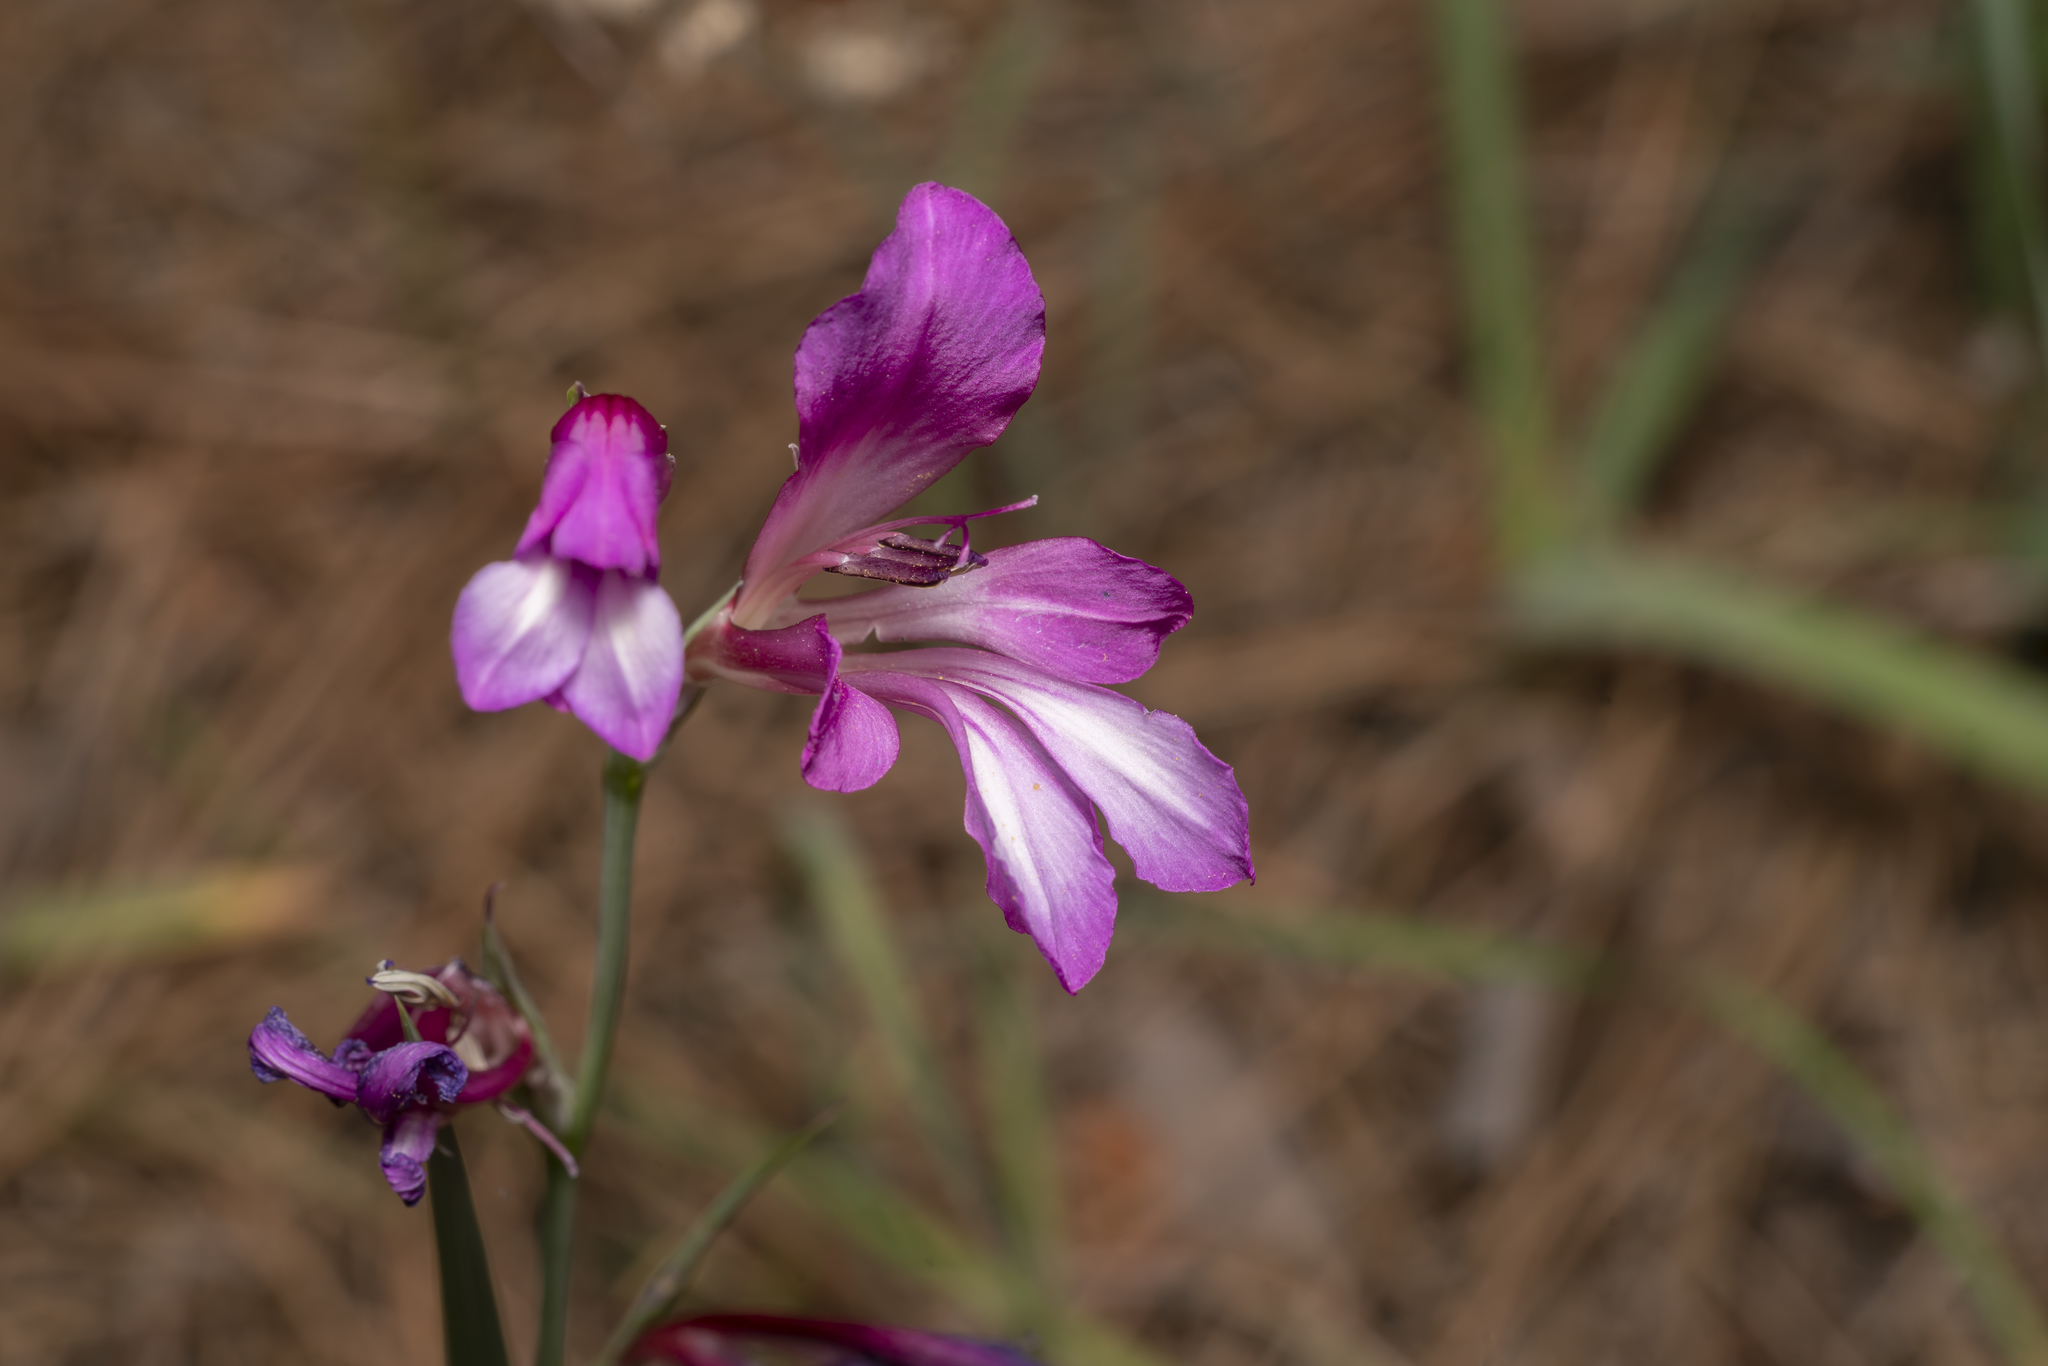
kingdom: Plantae
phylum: Tracheophyta
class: Liliopsida
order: Asparagales
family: Iridaceae
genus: Gladiolus
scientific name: Gladiolus anatolicus
